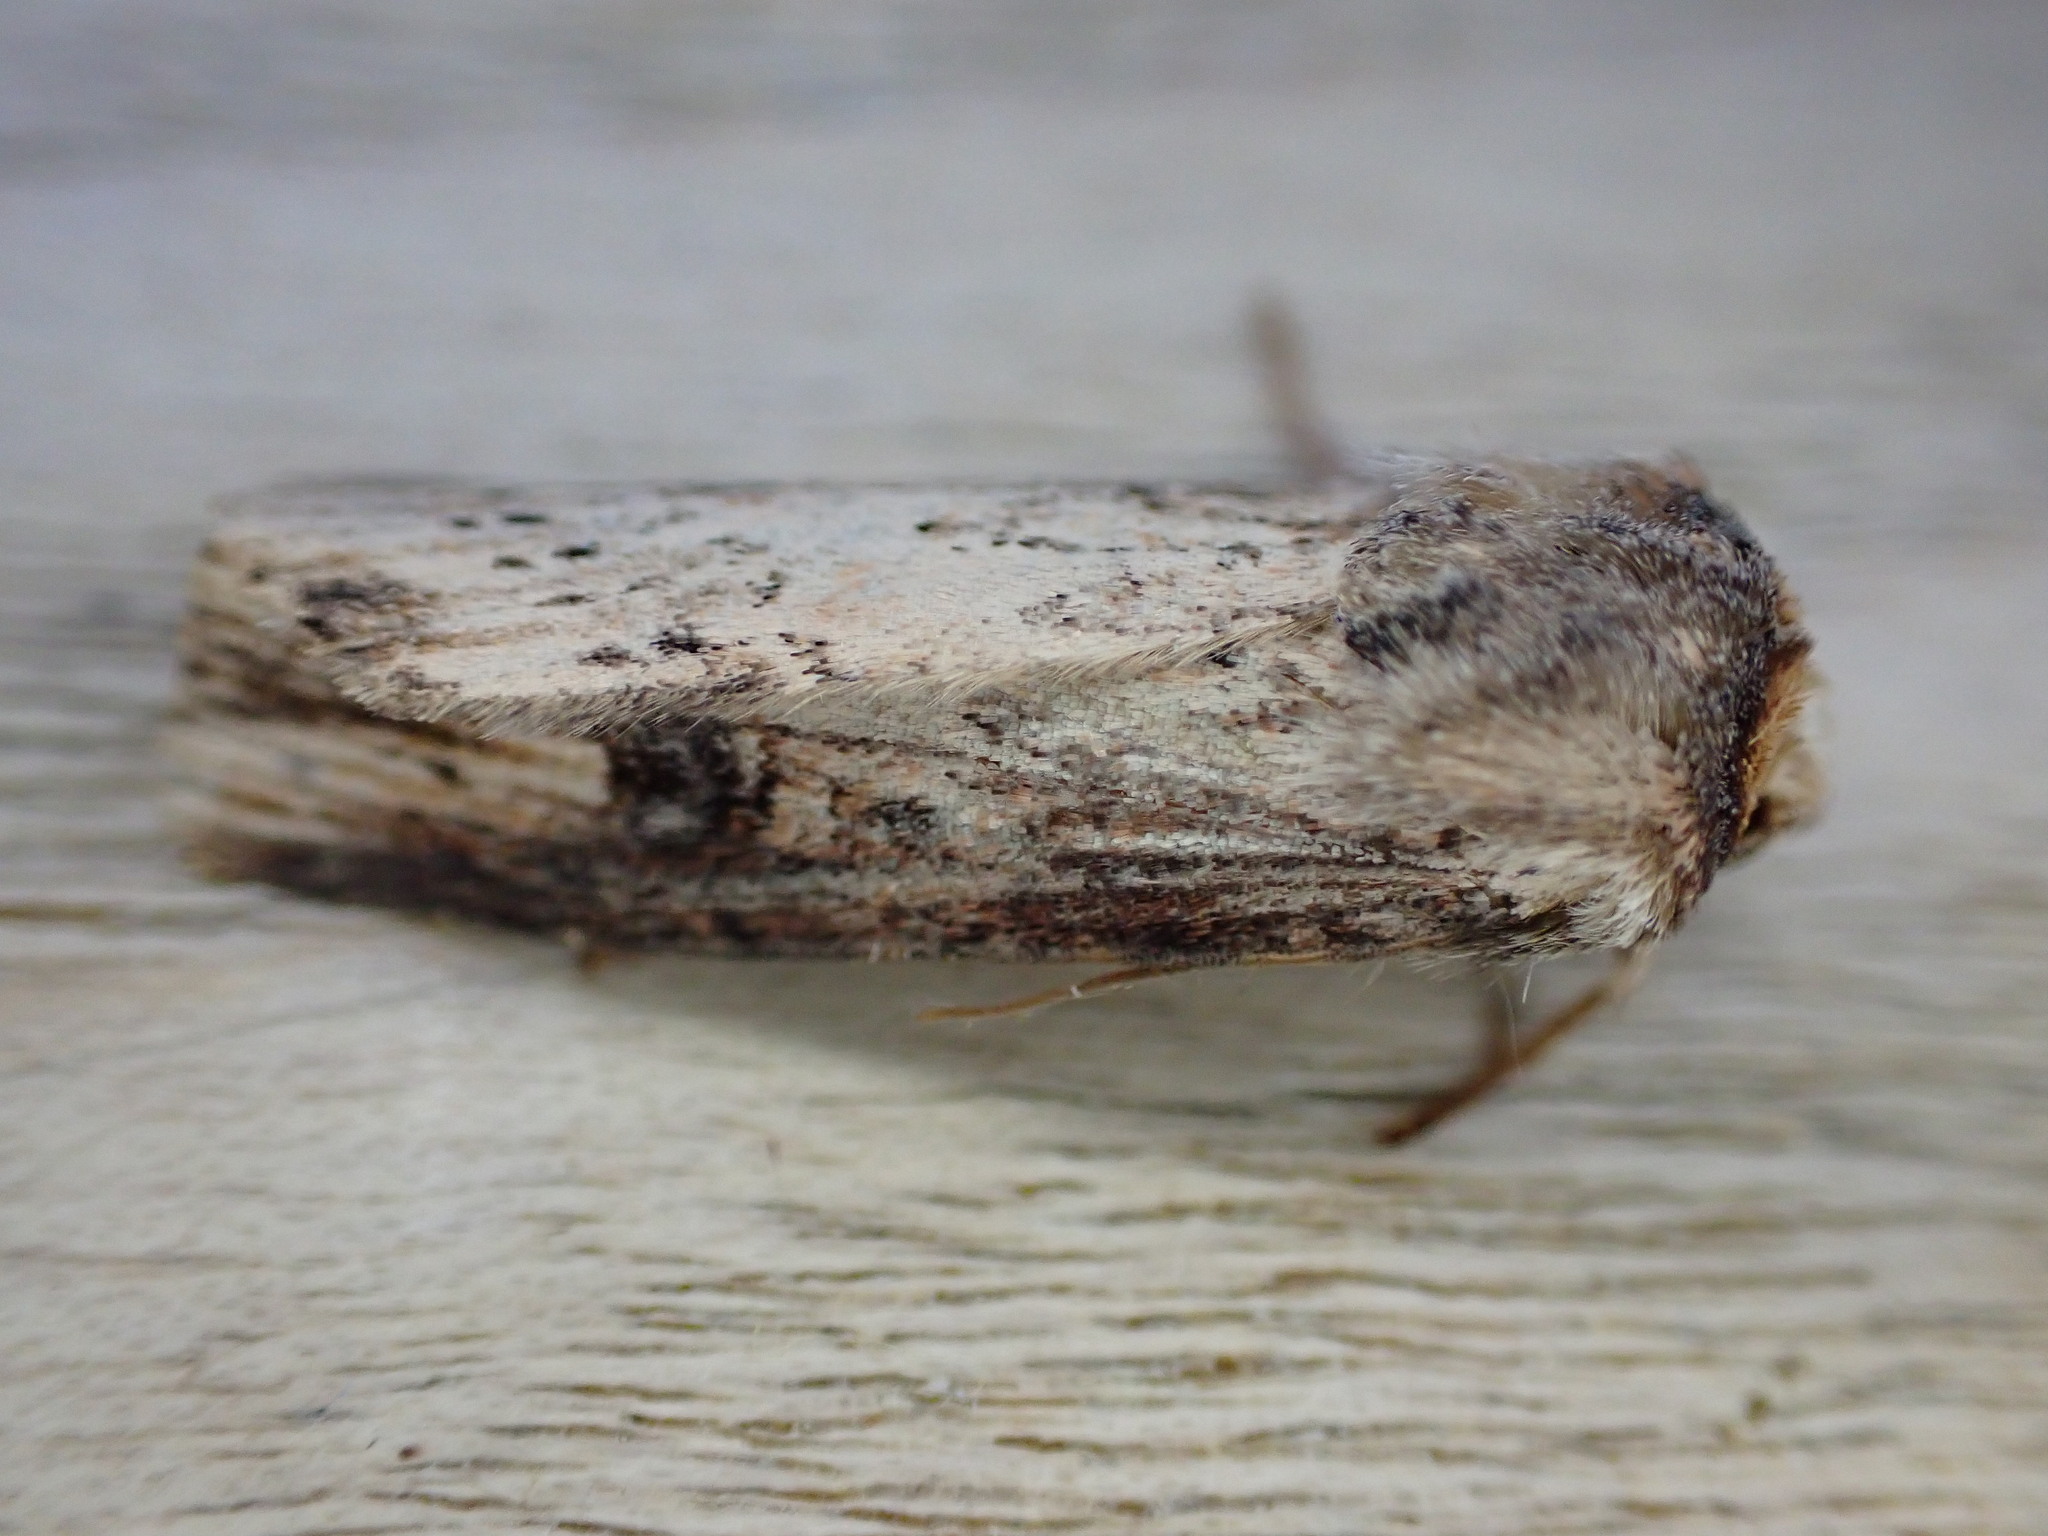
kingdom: Animalia
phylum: Arthropoda
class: Insecta
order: Lepidoptera
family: Noctuidae
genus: Axylia
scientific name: Axylia putris
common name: Flame
